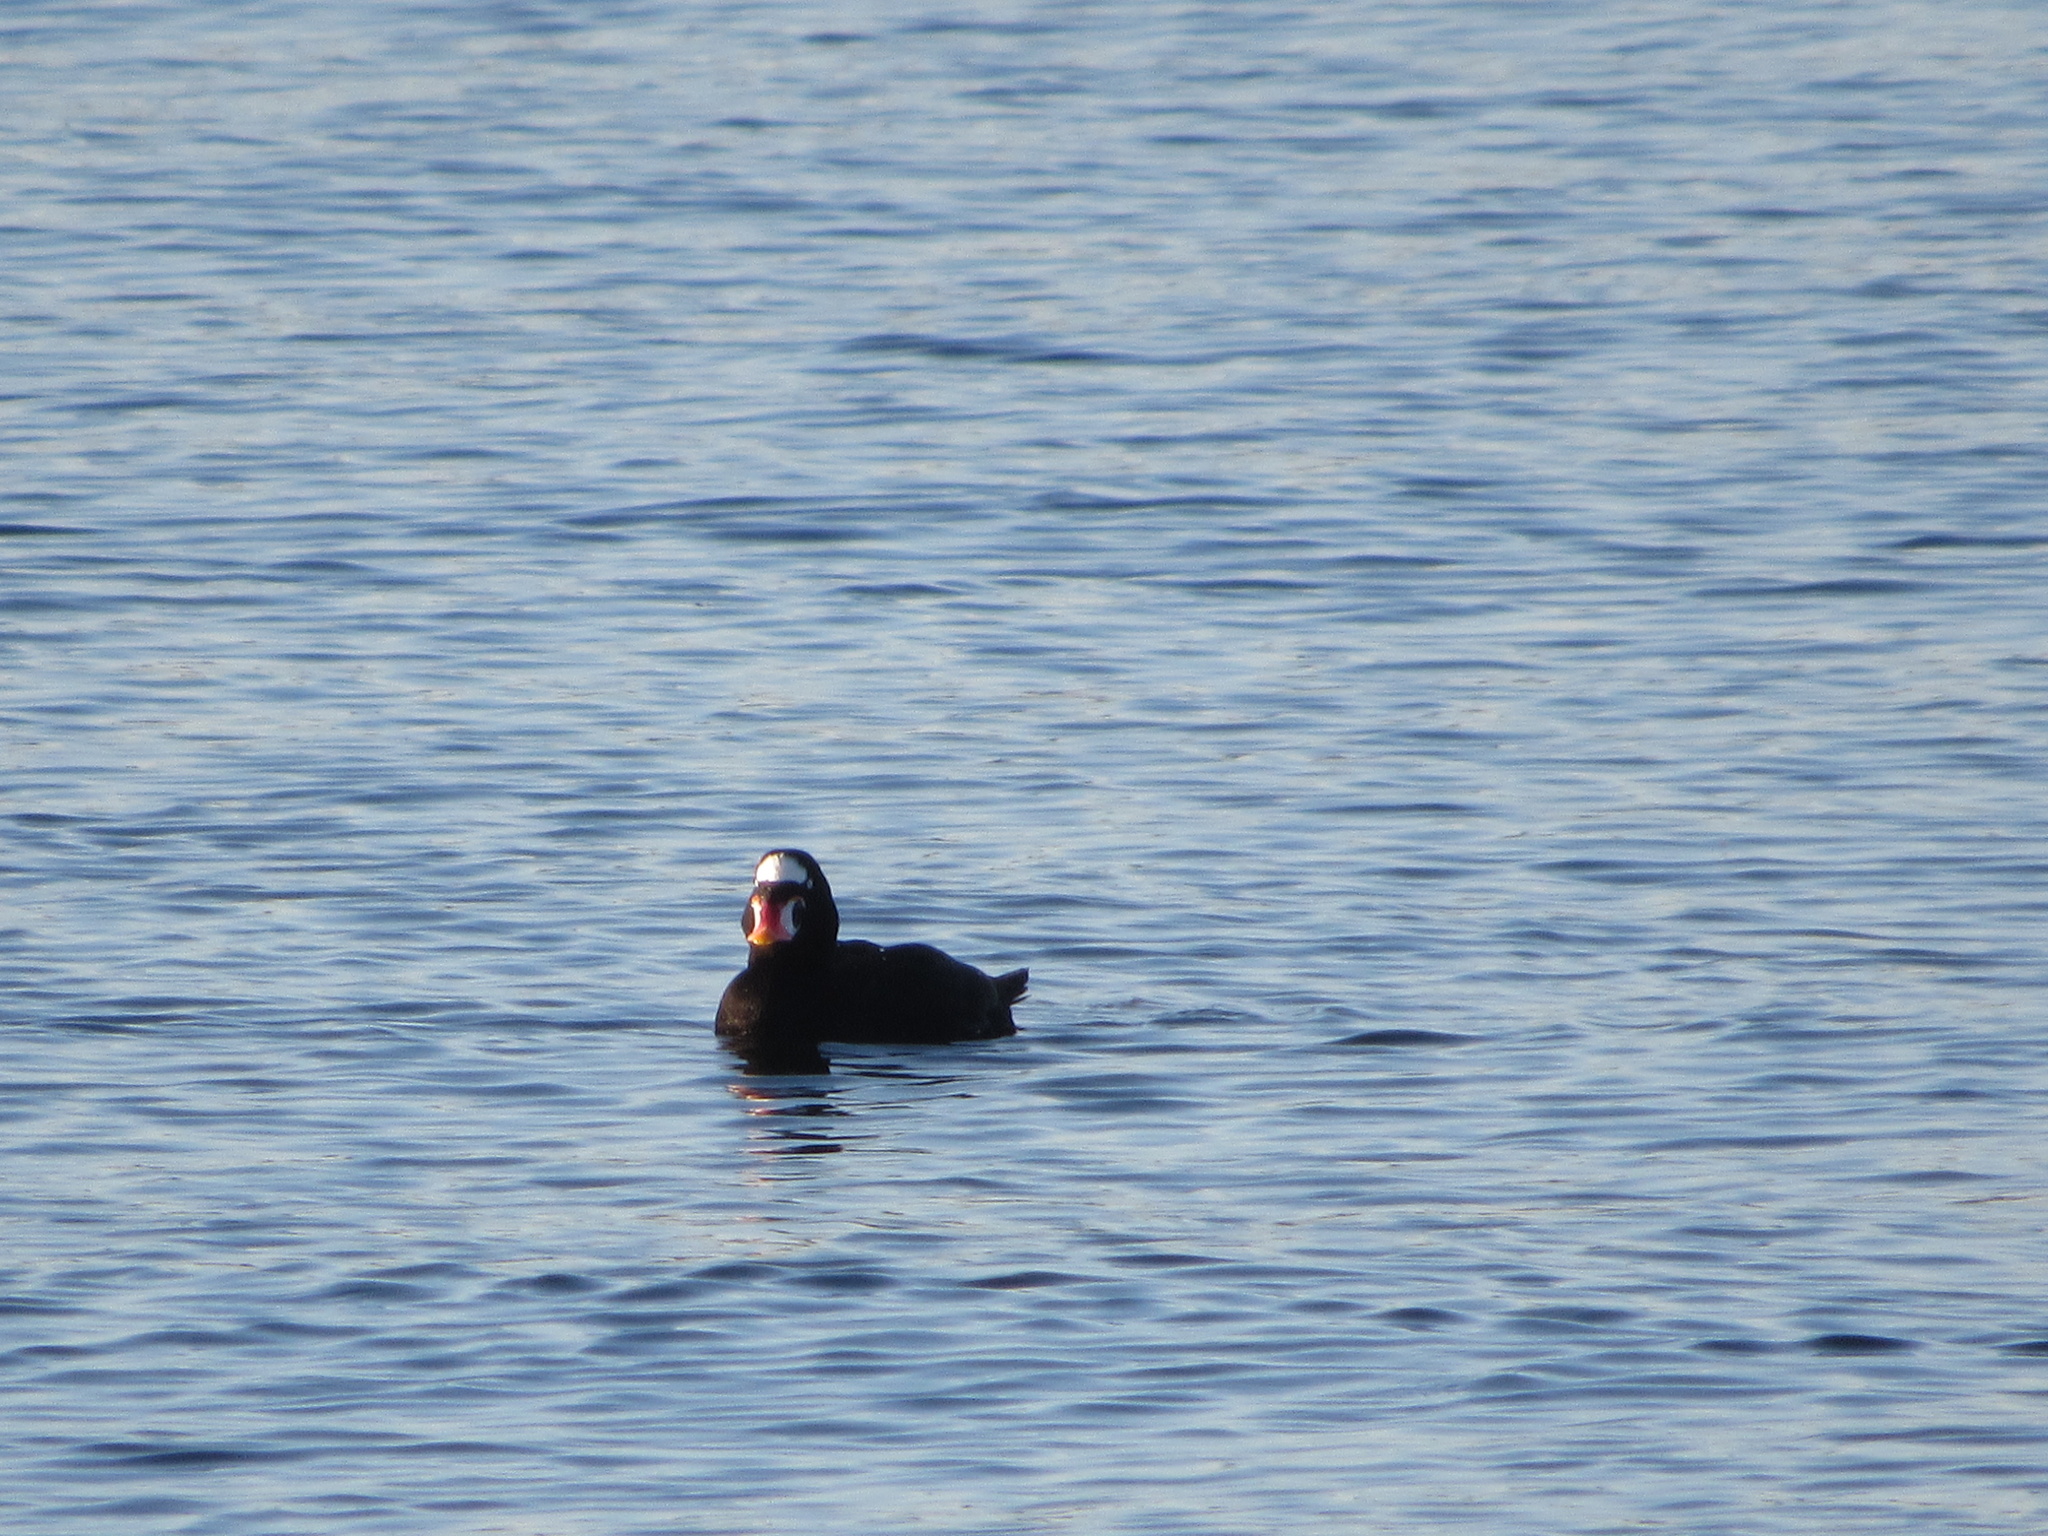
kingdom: Animalia
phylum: Chordata
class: Aves
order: Anseriformes
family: Anatidae
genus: Melanitta
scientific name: Melanitta perspicillata
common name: Surf scoter
